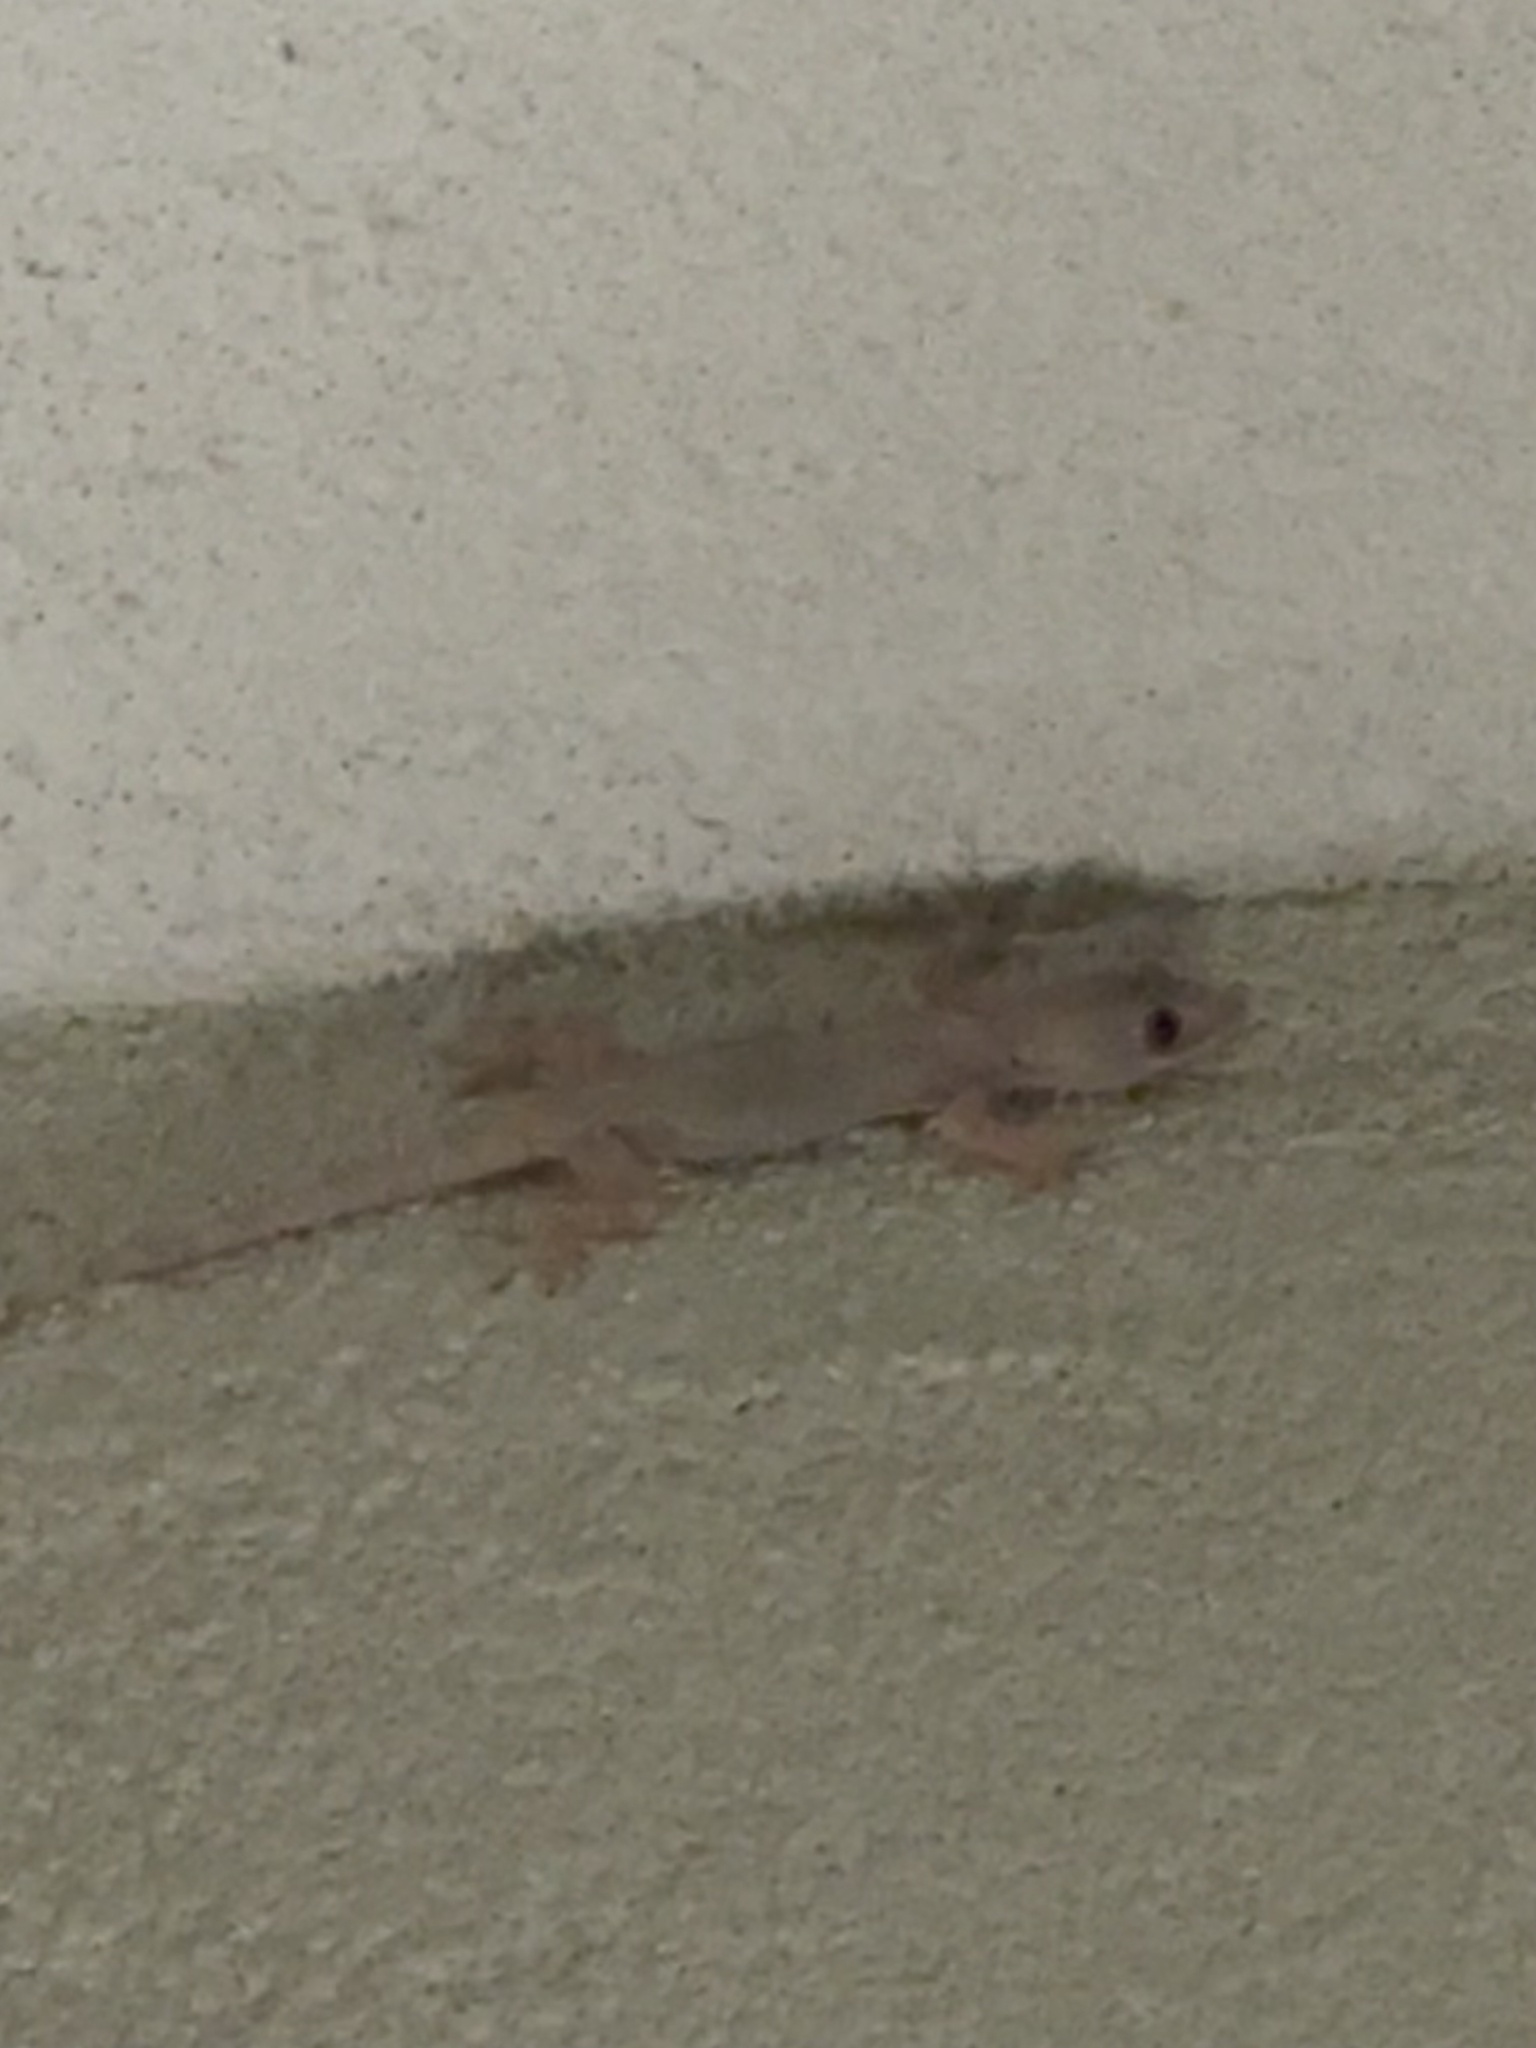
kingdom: Animalia
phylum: Chordata
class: Squamata
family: Gekkonidae
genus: Hemidactylus
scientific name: Hemidactylus mabouia
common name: House gecko
